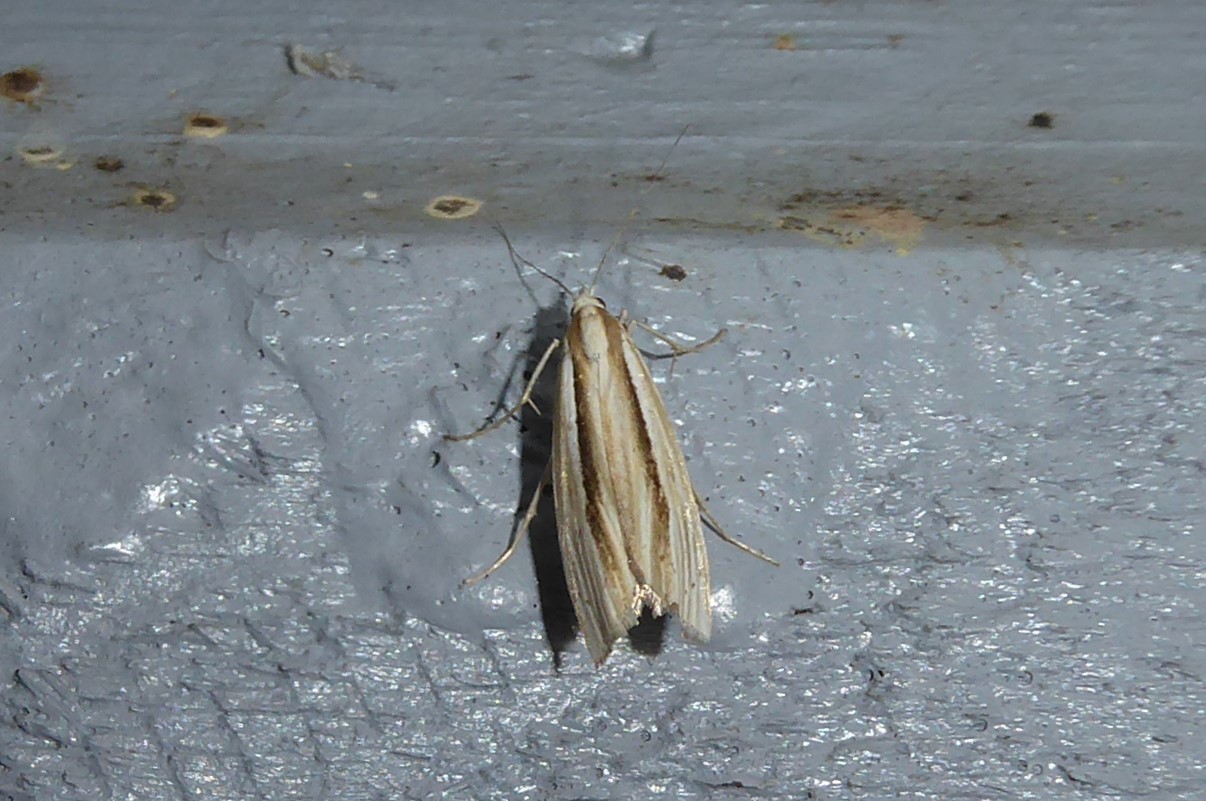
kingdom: Animalia
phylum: Arthropoda
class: Insecta
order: Lepidoptera
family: Crambidae
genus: Orocrambus
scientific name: Orocrambus ramosellus
